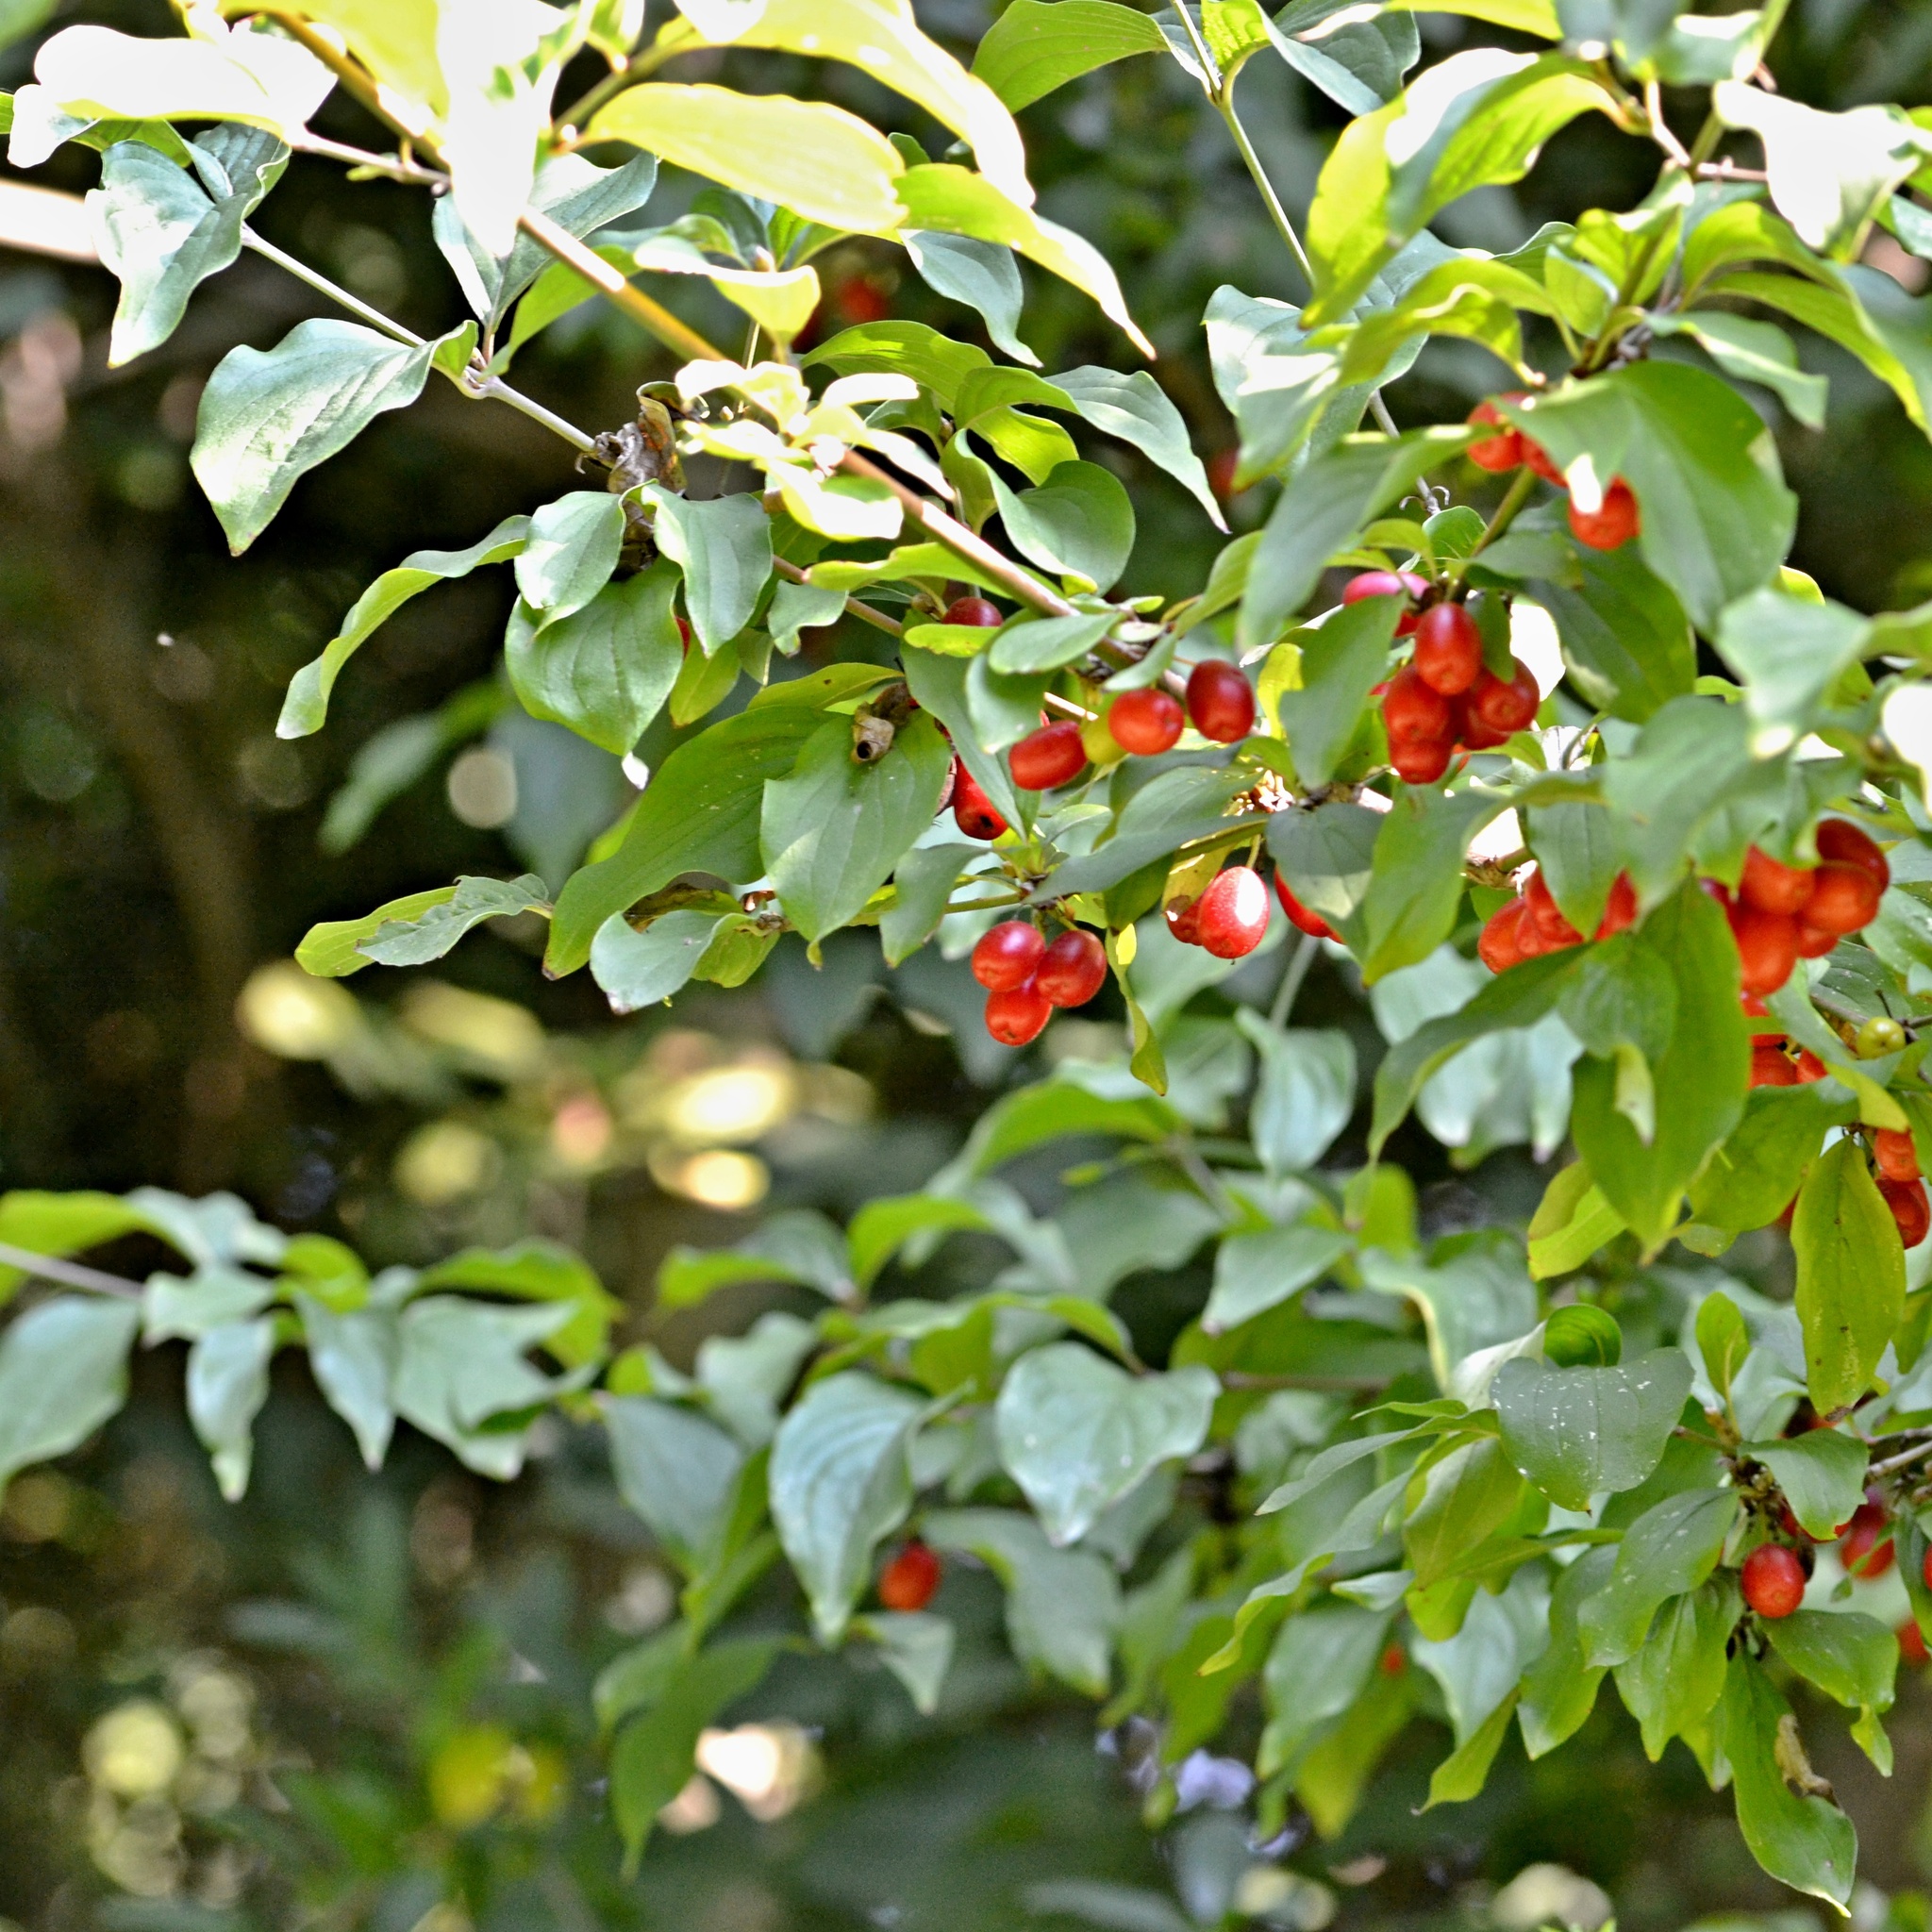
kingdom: Plantae
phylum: Tracheophyta
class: Magnoliopsida
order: Cornales
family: Cornaceae
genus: Cornus
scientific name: Cornus mas
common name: Cornelian-cherry
